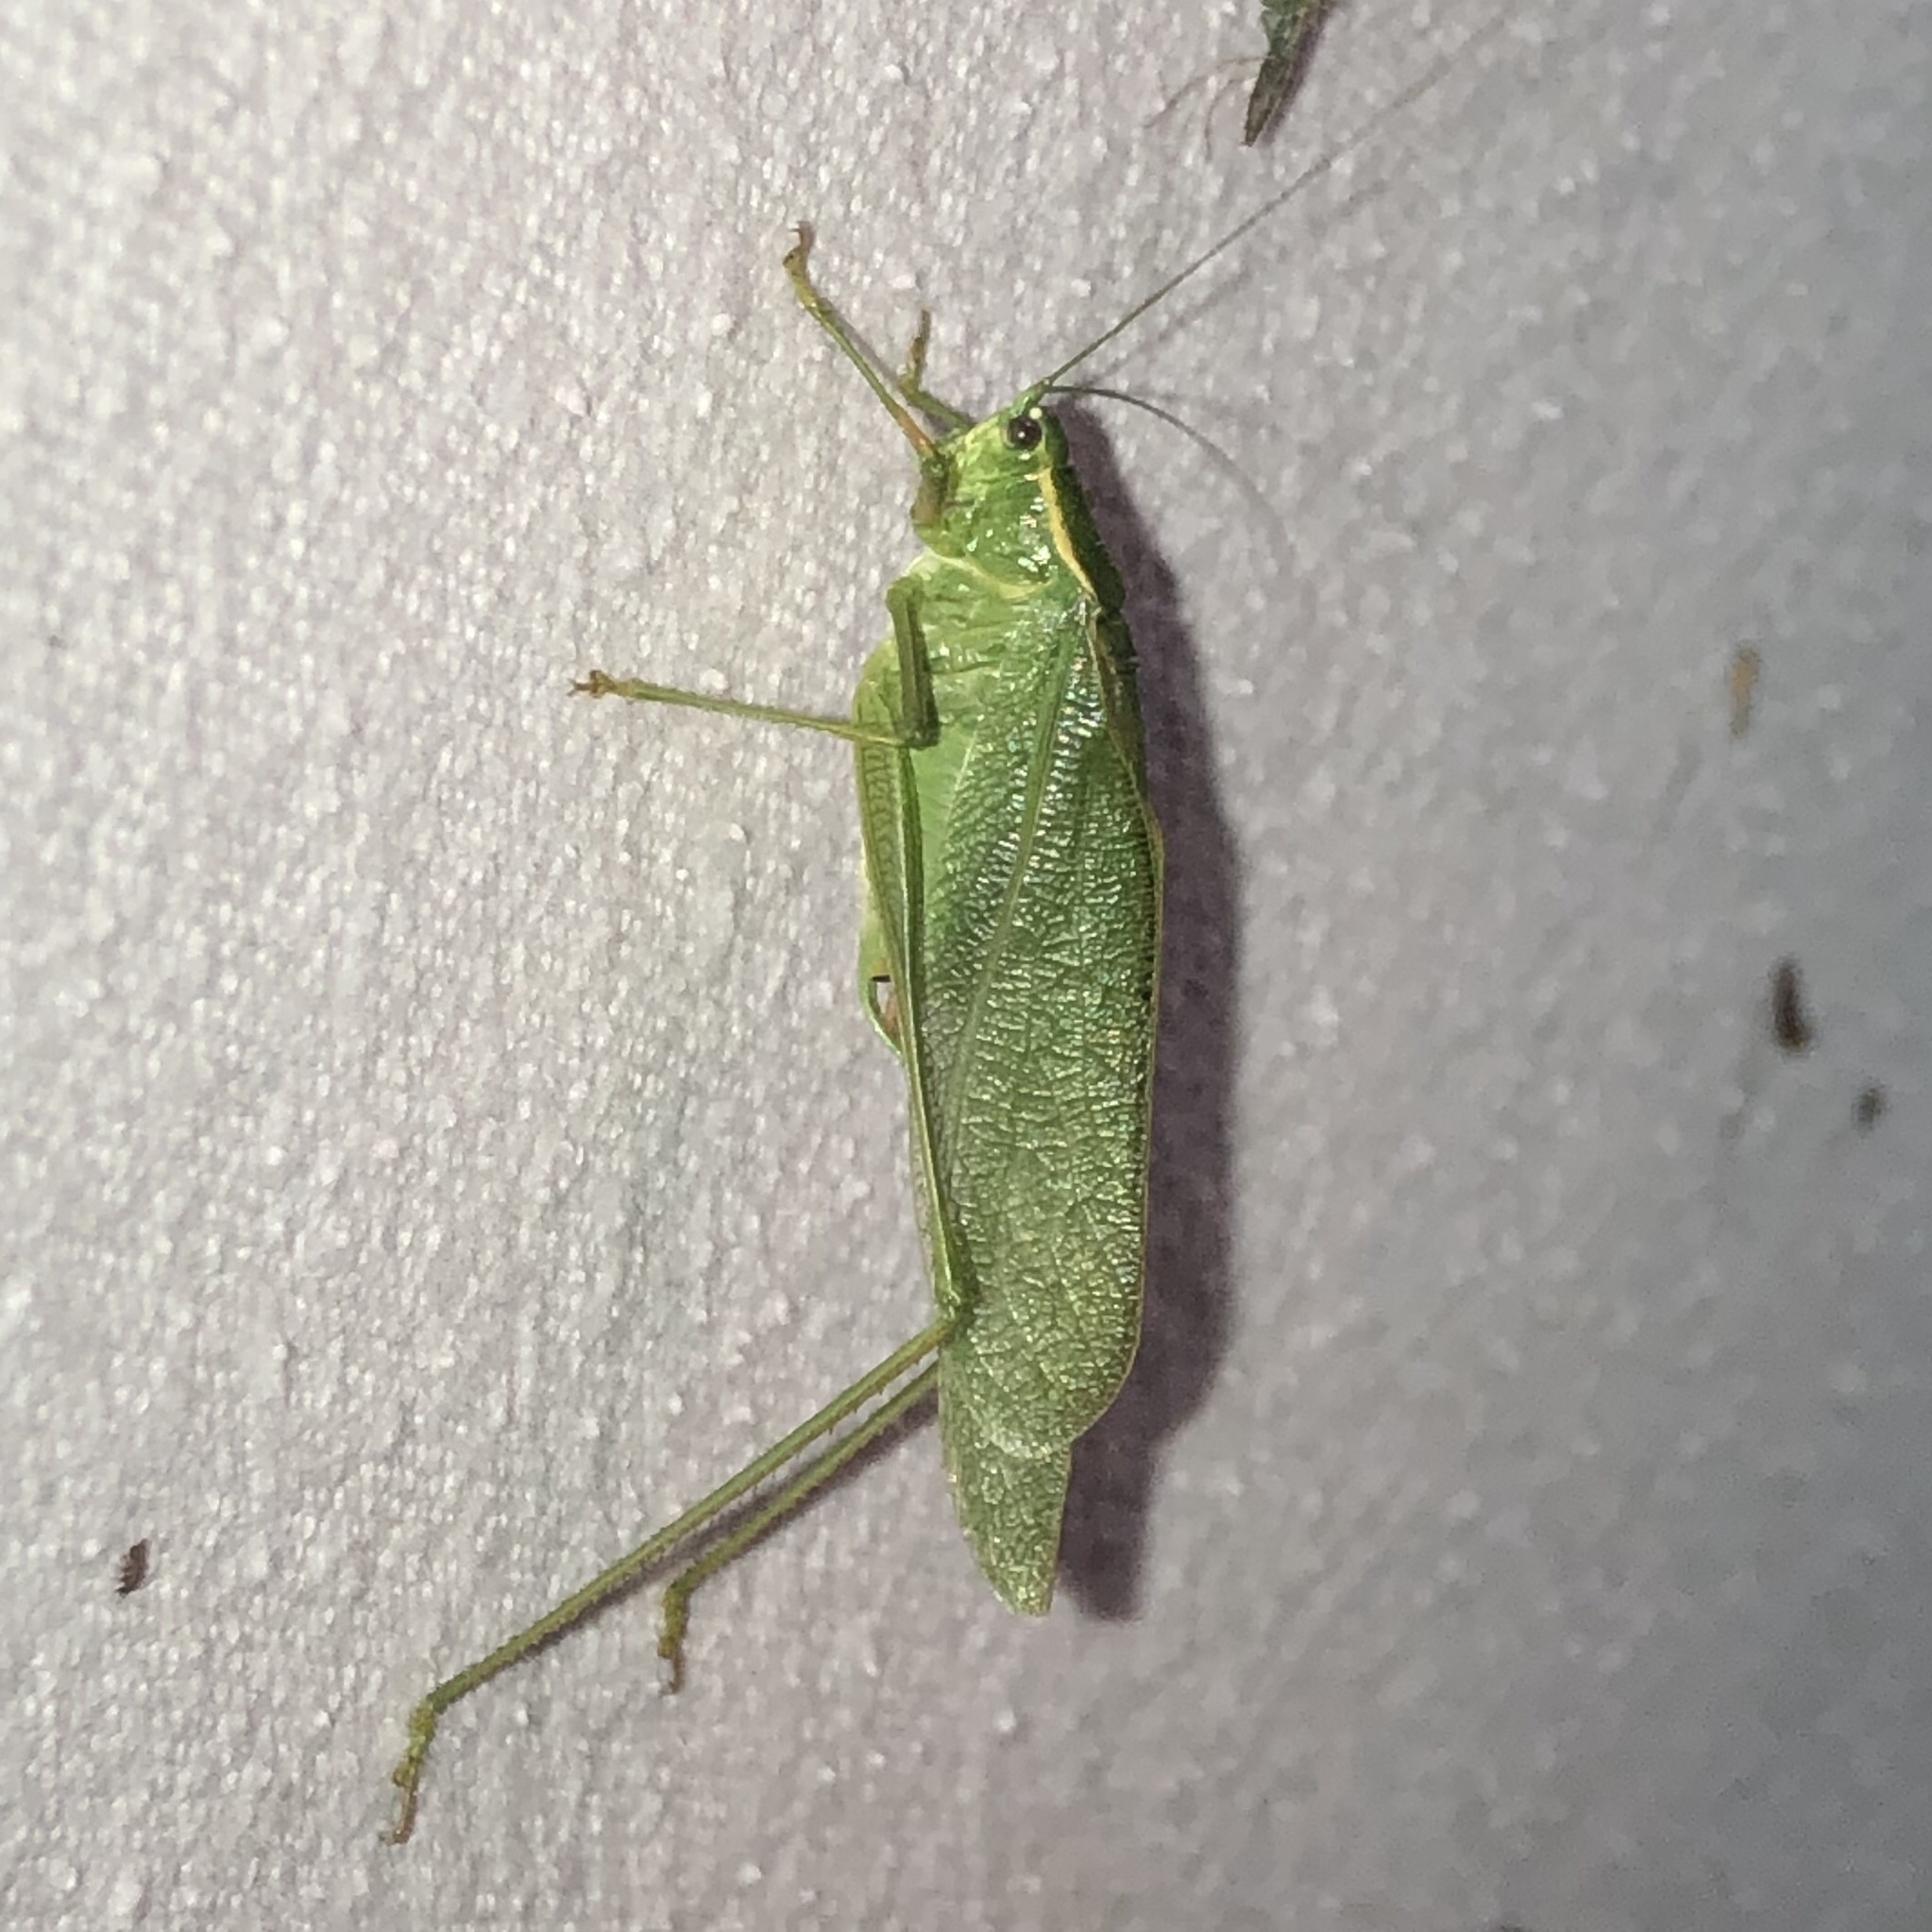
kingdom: Animalia
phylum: Arthropoda
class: Insecta
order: Orthoptera
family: Tettigoniidae
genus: Scudderia
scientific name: Scudderia septentrionalis
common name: Northern bush-katydid
